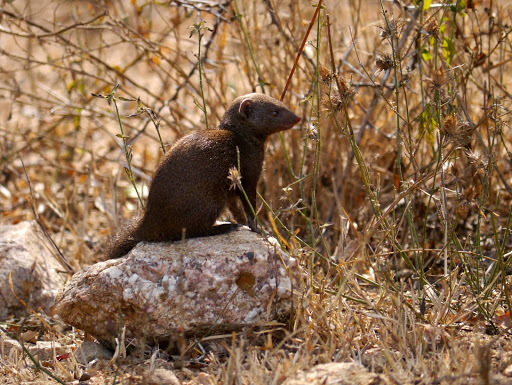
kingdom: Animalia
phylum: Chordata
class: Mammalia
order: Carnivora
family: Herpestidae
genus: Helogale
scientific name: Helogale parvula
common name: Common dwarf mongoose
